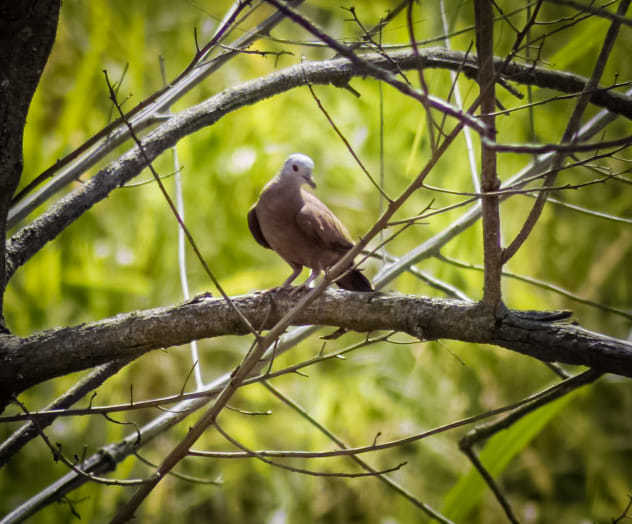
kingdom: Animalia
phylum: Chordata
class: Aves
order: Columbiformes
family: Columbidae
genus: Columbina
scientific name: Columbina talpacoti
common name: Ruddy ground dove
